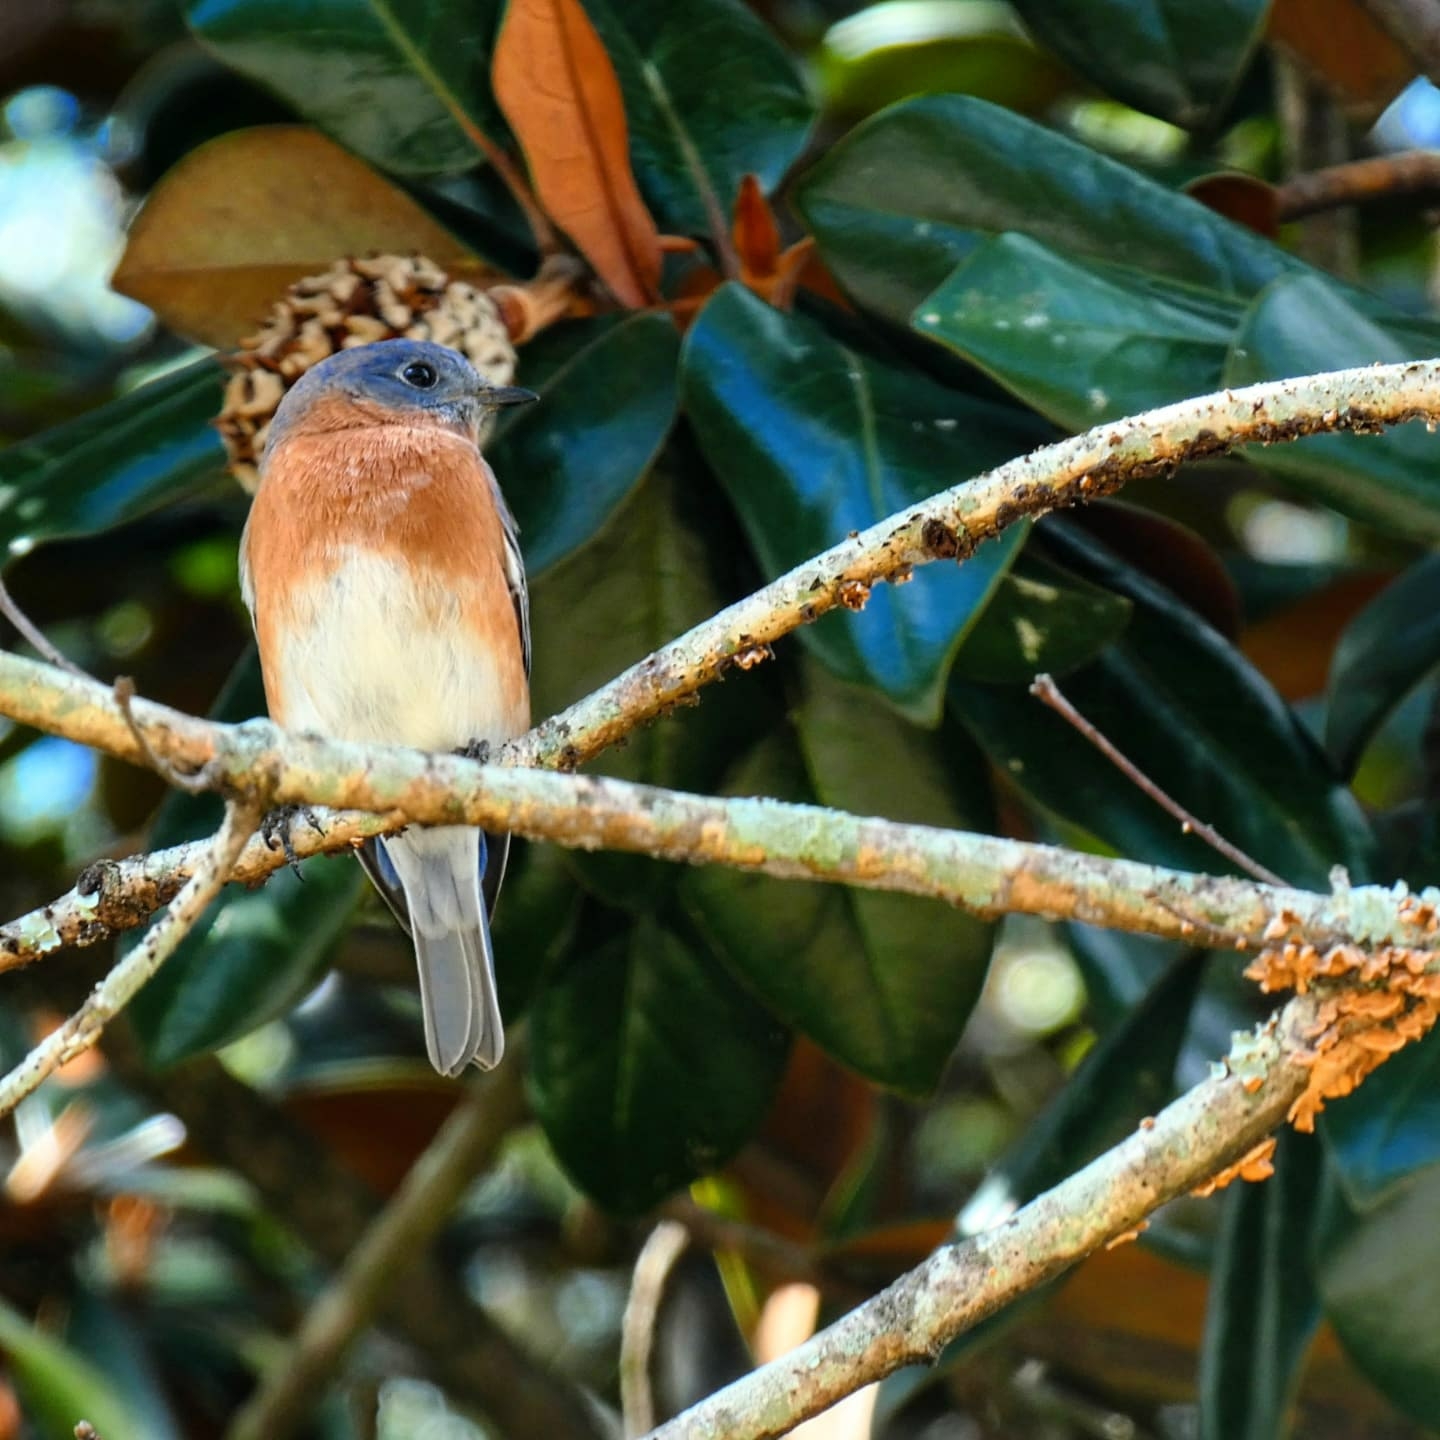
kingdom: Animalia
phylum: Chordata
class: Aves
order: Passeriformes
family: Turdidae
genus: Sialia
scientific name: Sialia sialis
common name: Eastern bluebird
